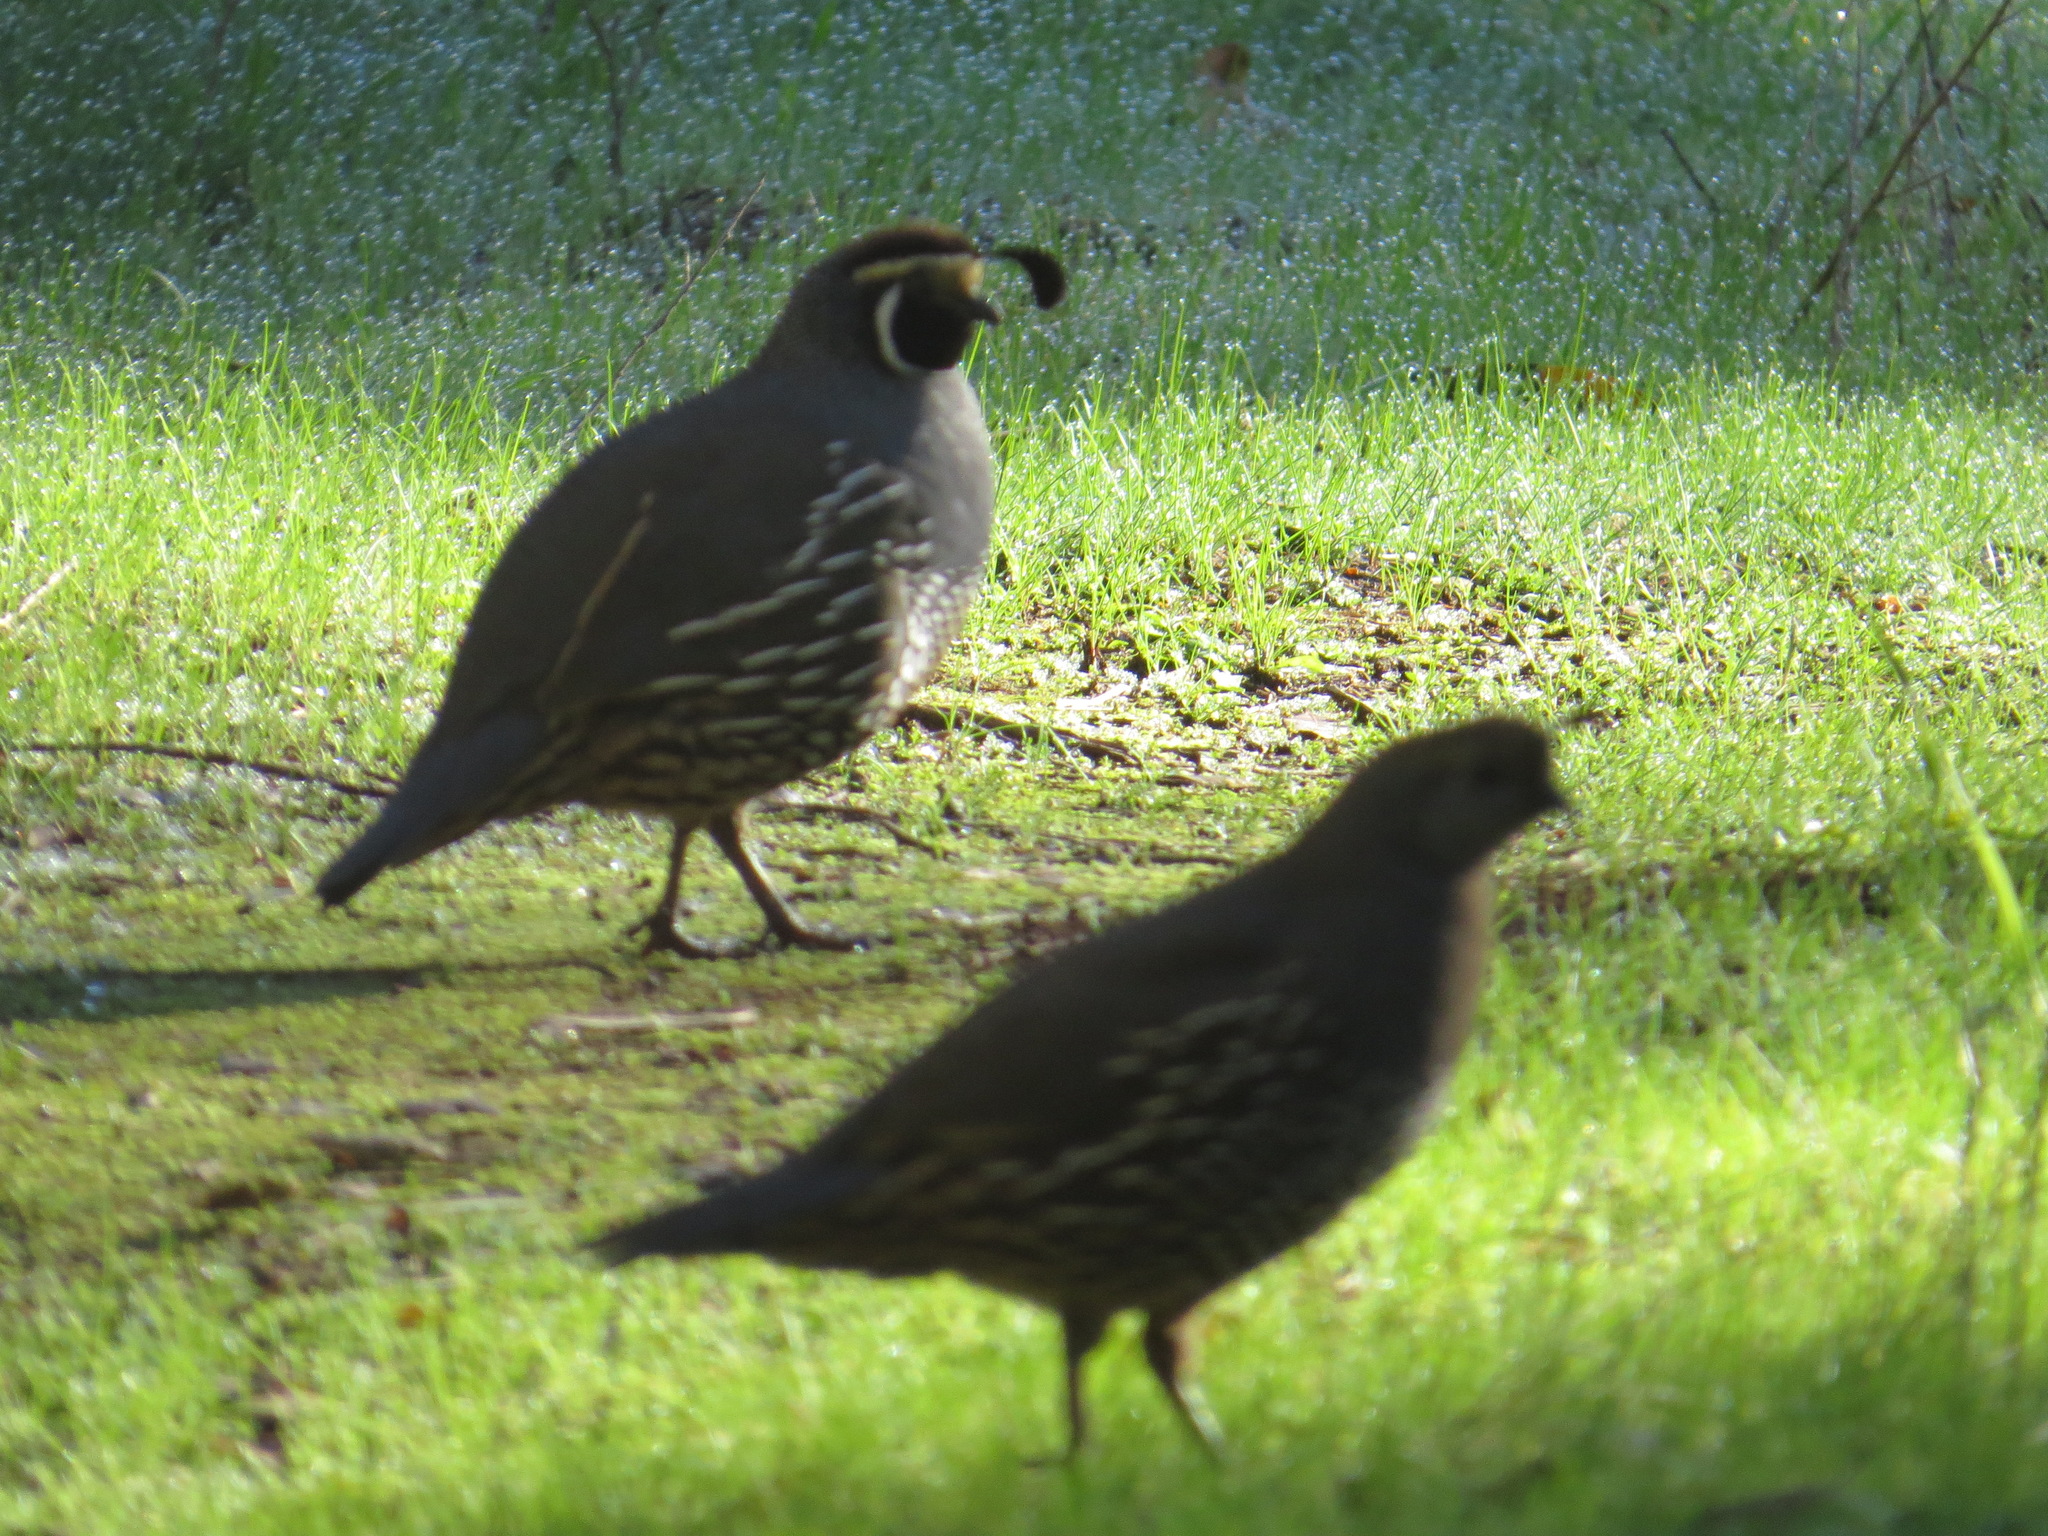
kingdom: Animalia
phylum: Chordata
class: Aves
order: Galliformes
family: Odontophoridae
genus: Callipepla
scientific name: Callipepla californica
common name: California quail
